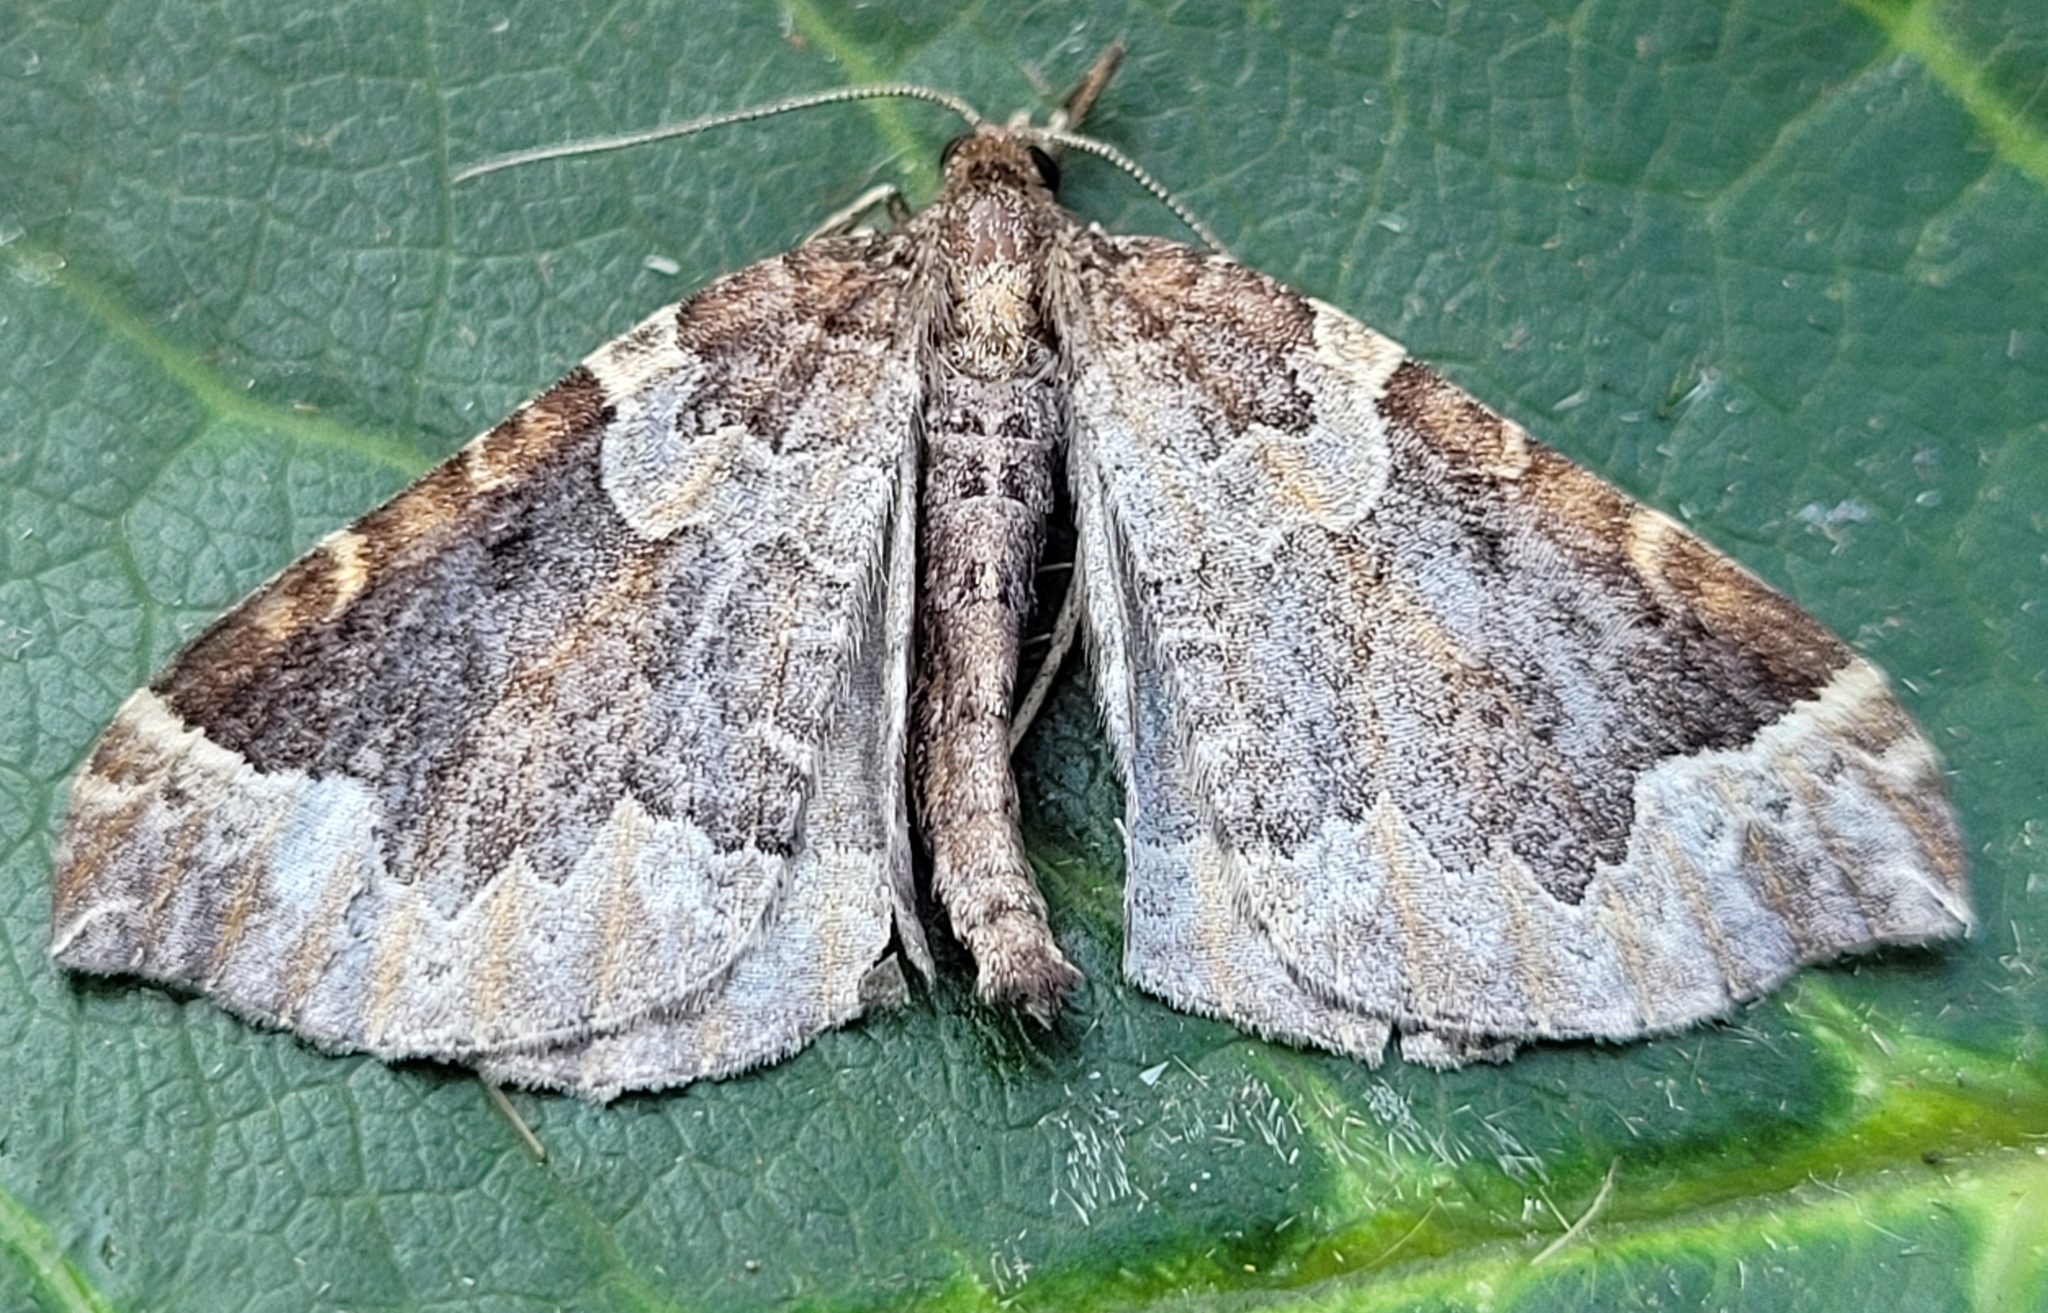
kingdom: Animalia
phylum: Arthropoda
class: Insecta
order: Lepidoptera
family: Geometridae
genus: Eulithis
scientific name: Eulithis flavibrunneata
